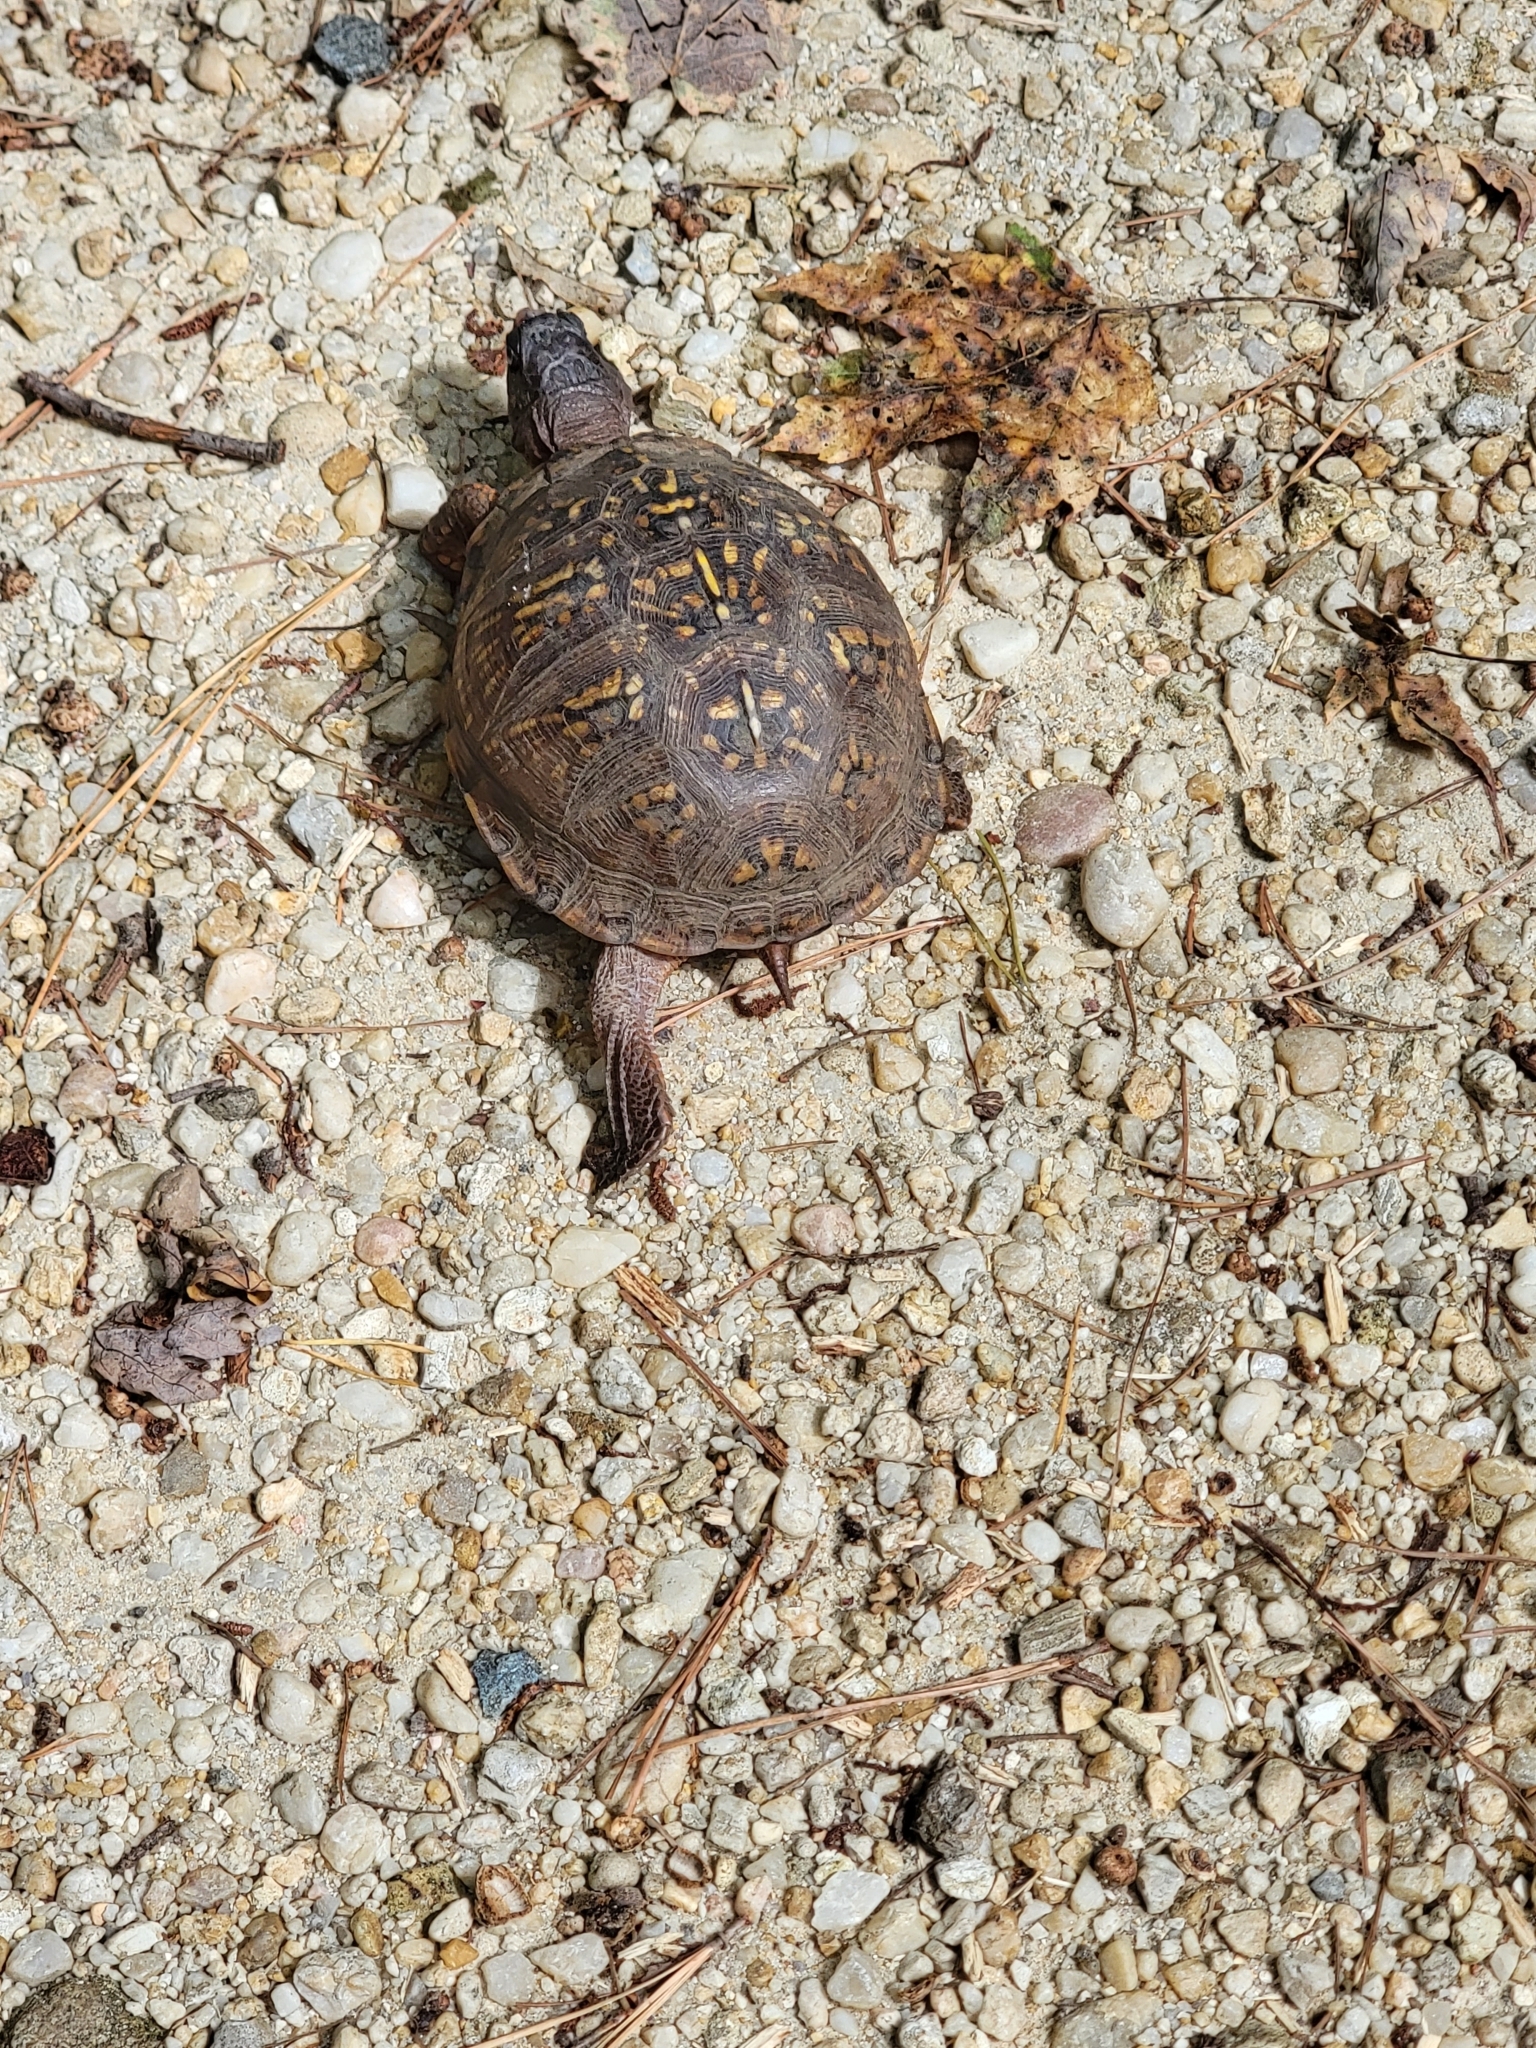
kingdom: Animalia
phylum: Chordata
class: Testudines
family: Emydidae
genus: Terrapene
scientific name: Terrapene carolina
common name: Common box turtle
